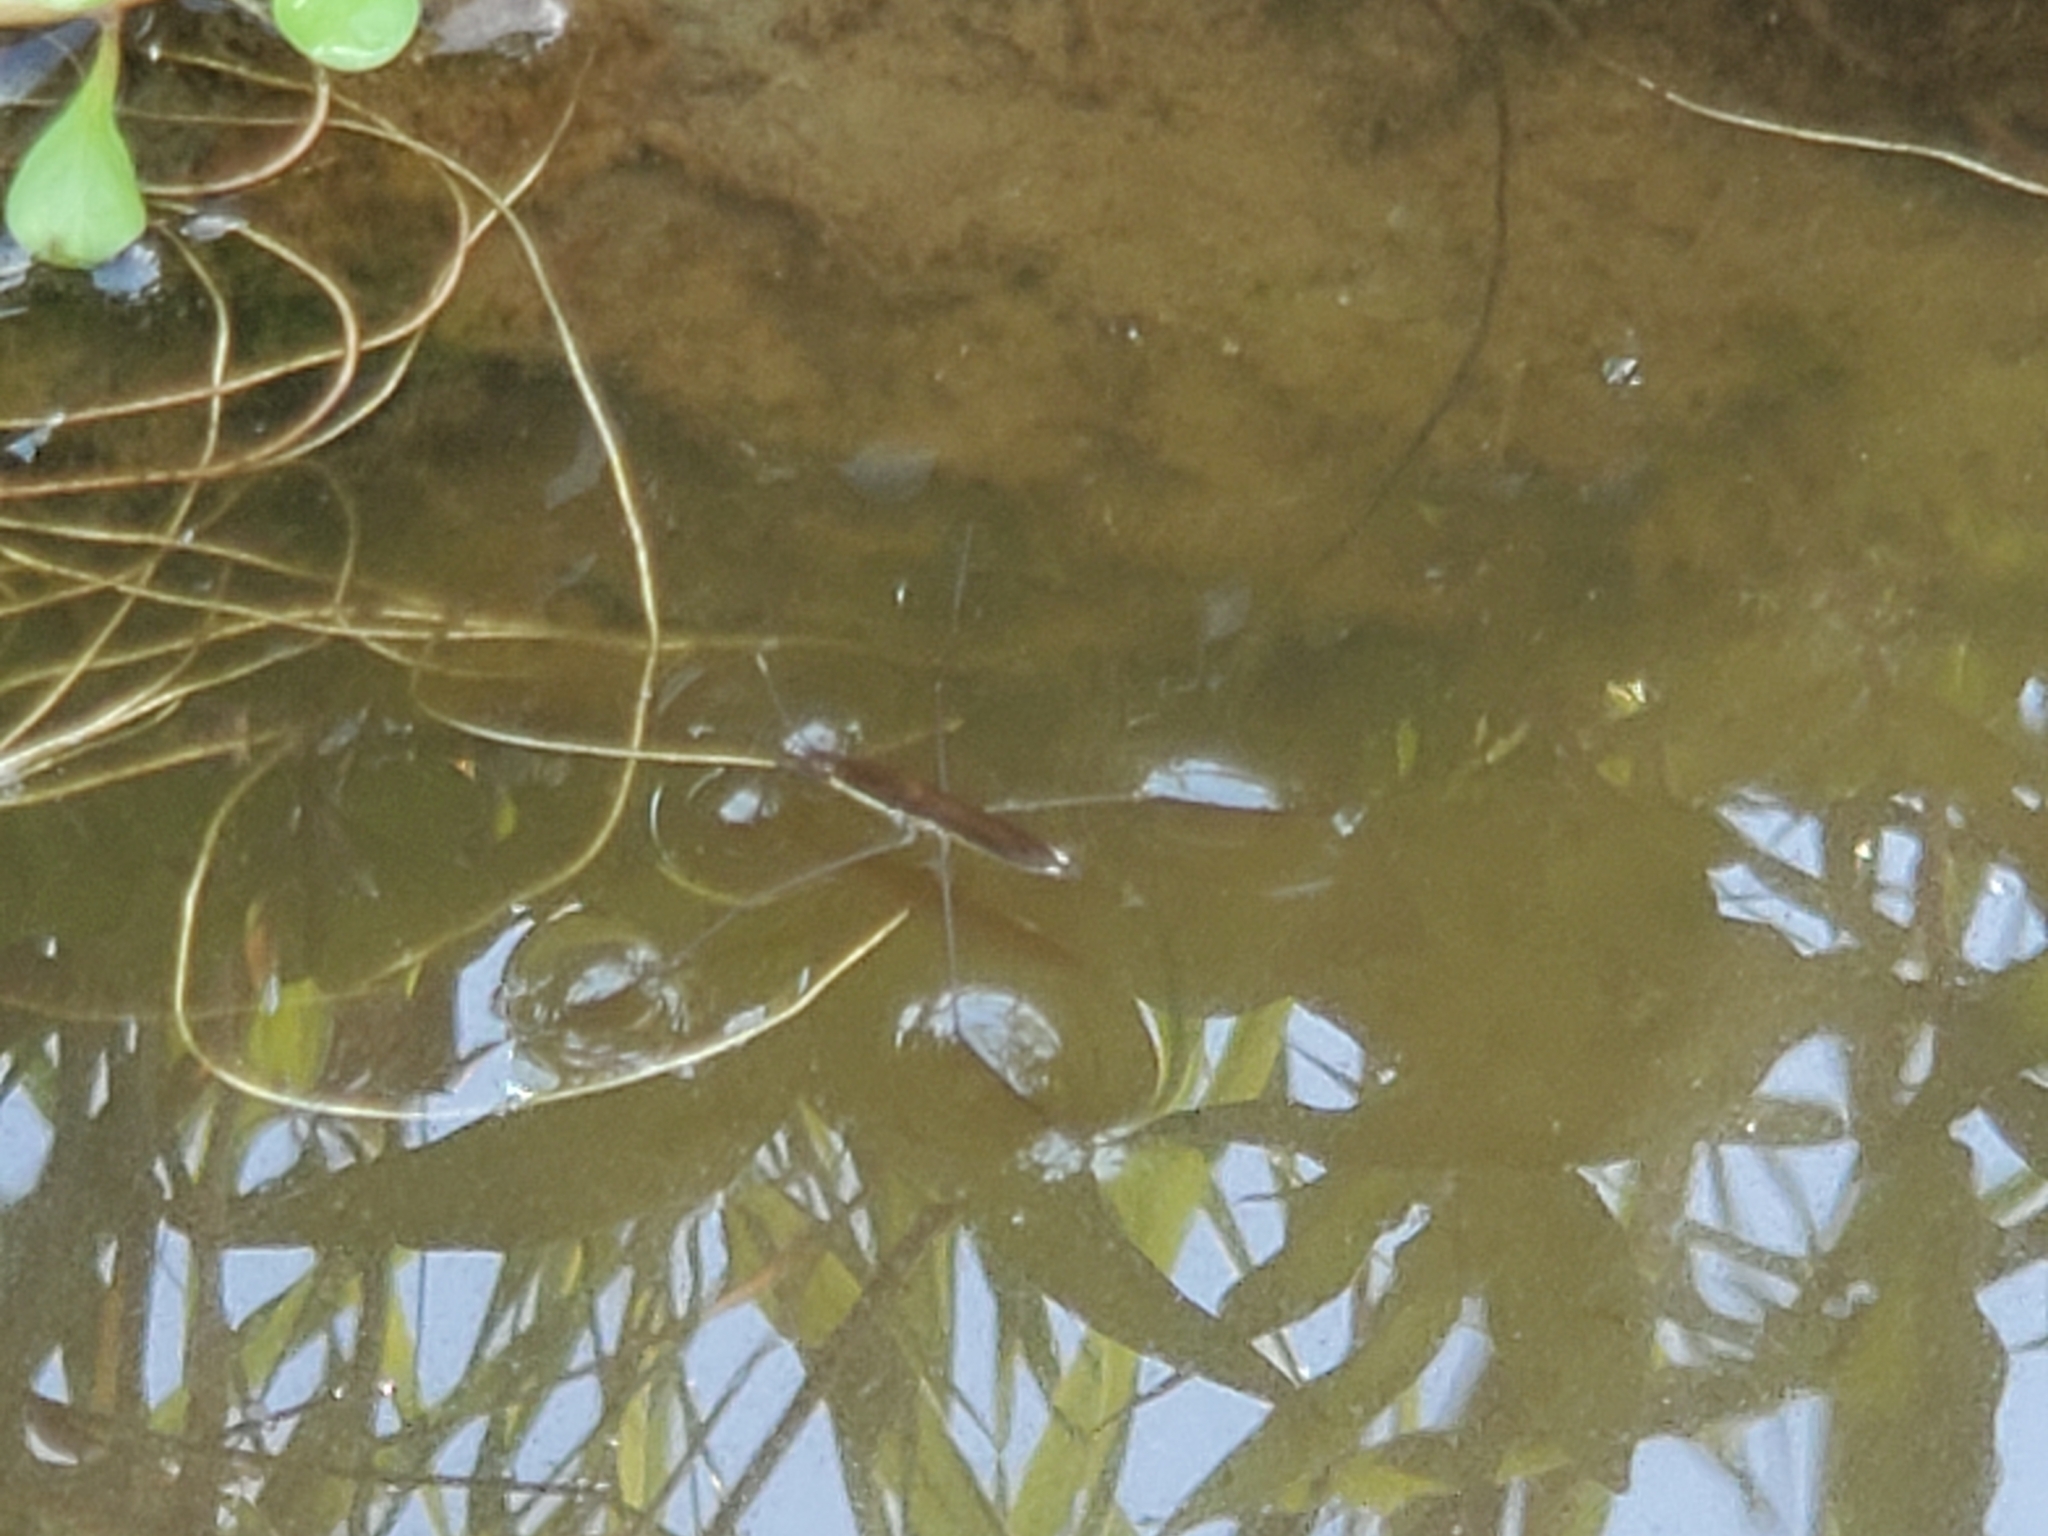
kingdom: Animalia
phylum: Arthropoda
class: Insecta
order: Hemiptera
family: Gerridae
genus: Limnoporus
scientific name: Limnoporus notabilis
